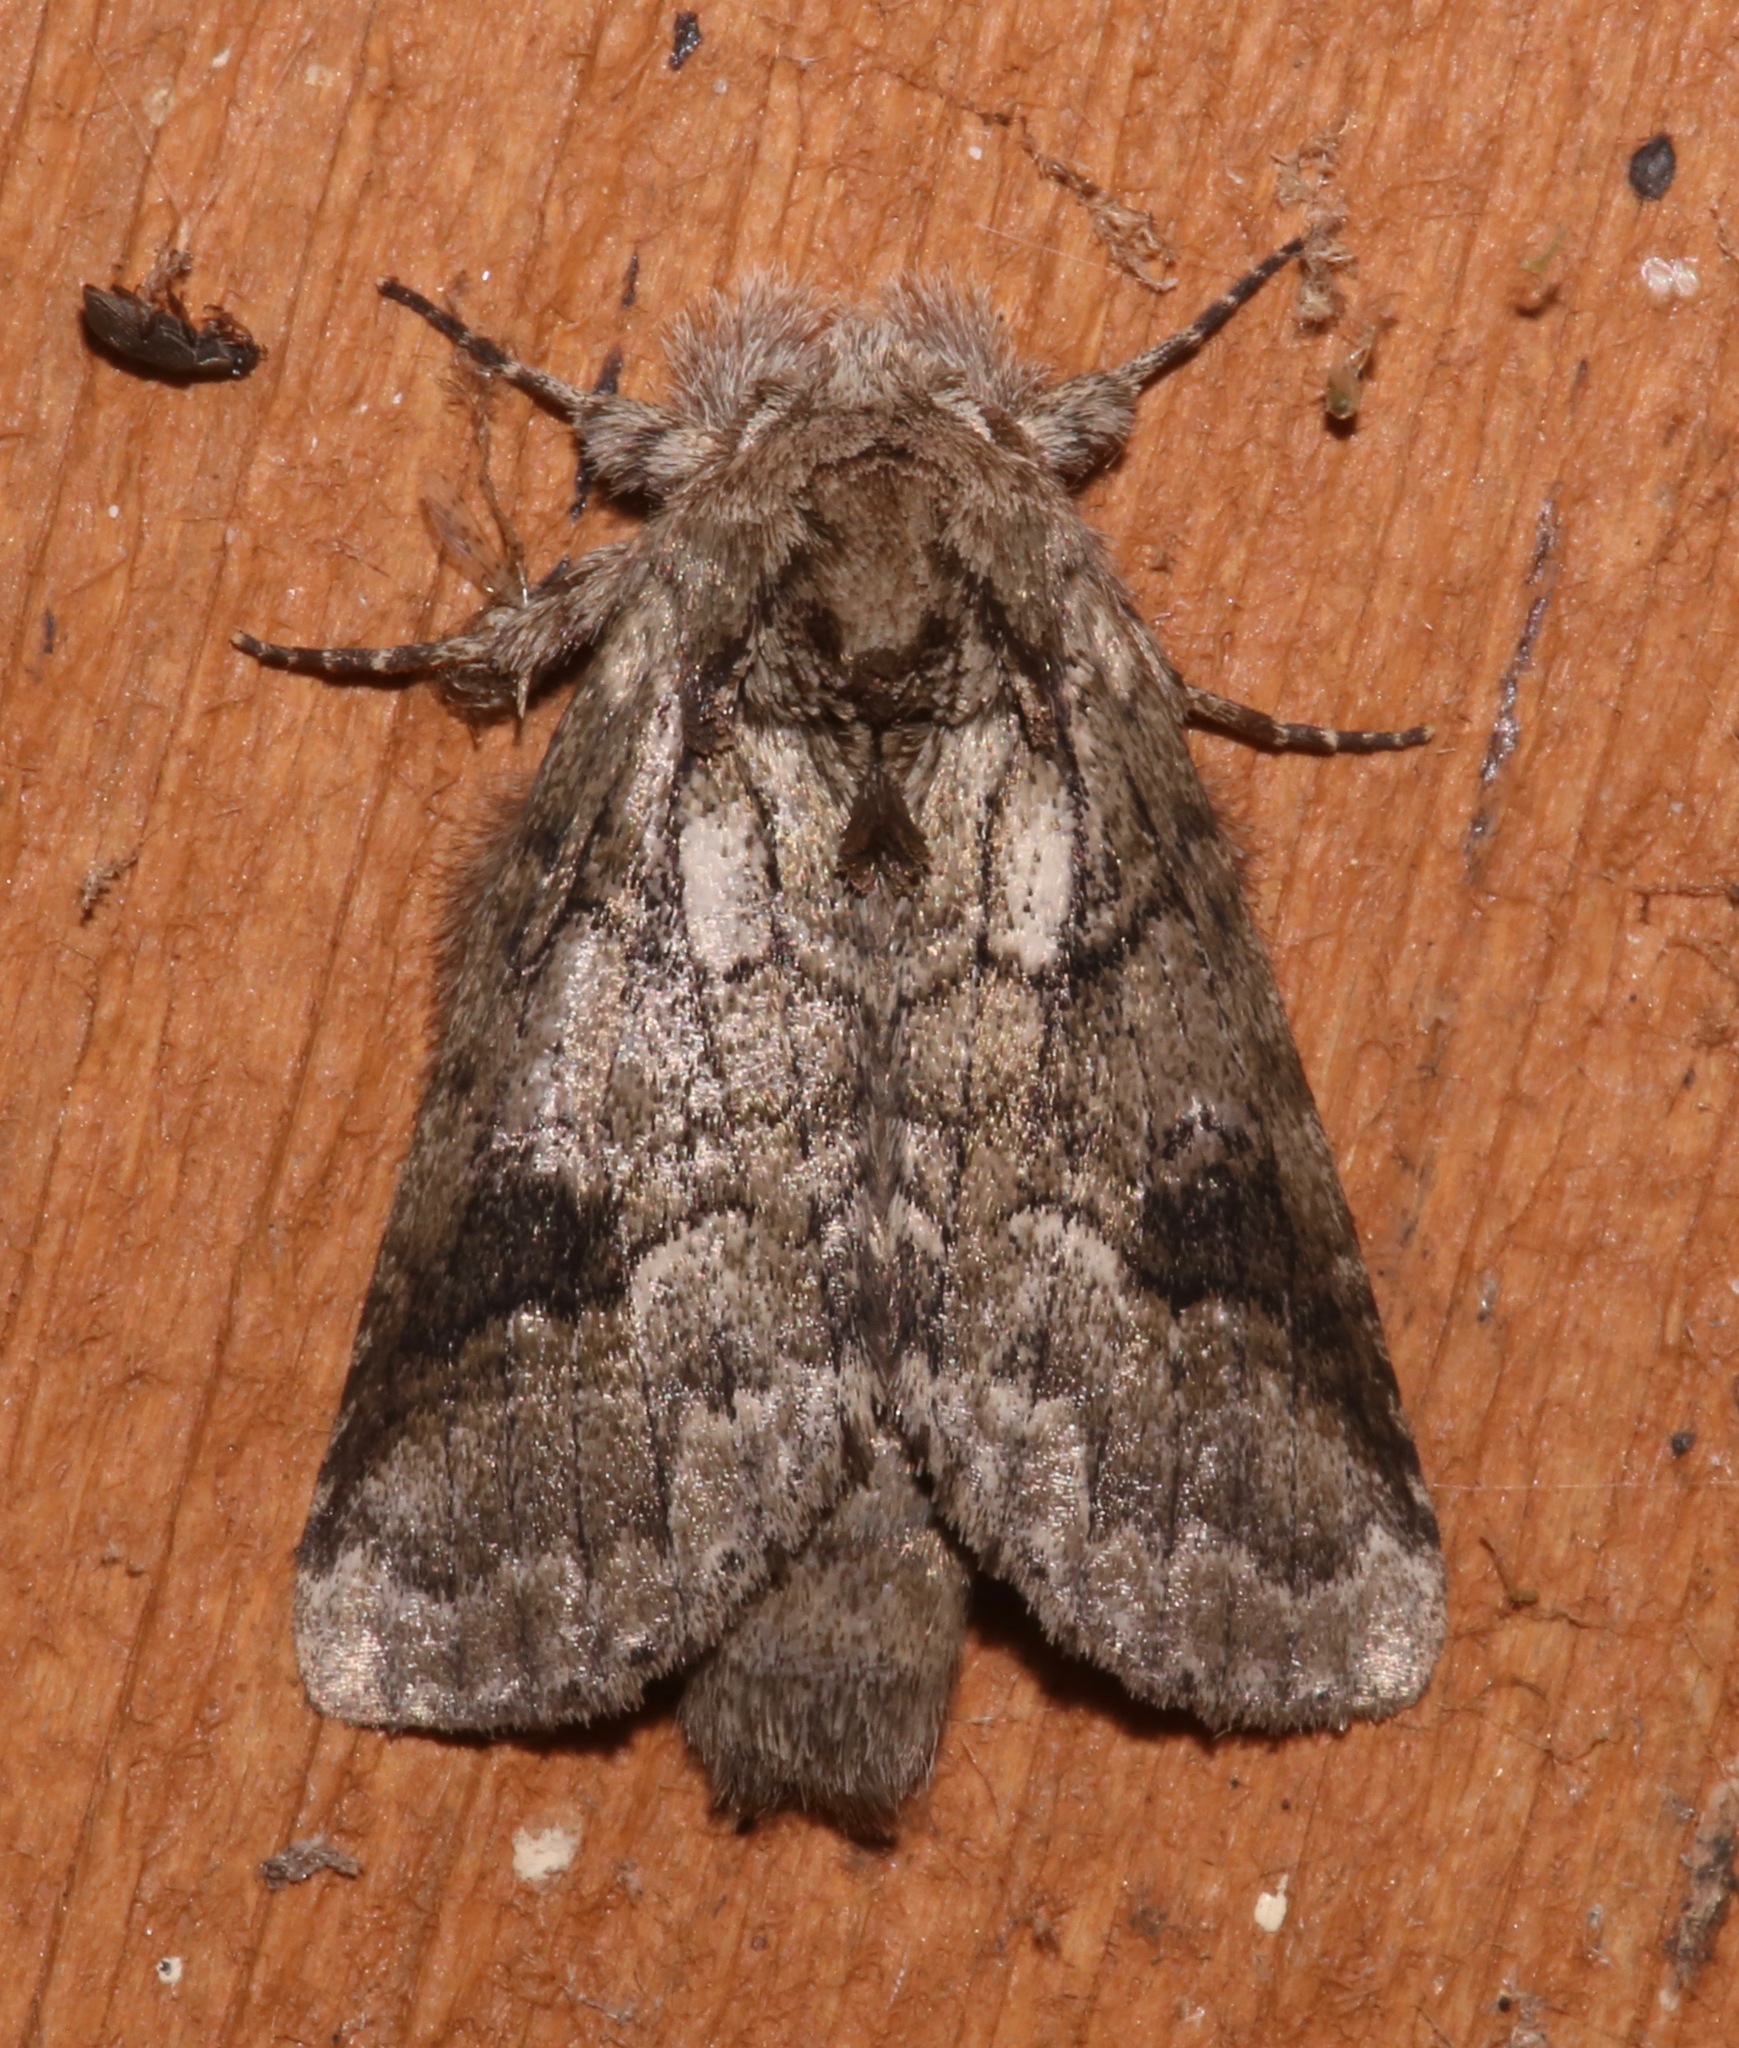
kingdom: Animalia
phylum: Arthropoda
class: Insecta
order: Lepidoptera
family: Notodontidae
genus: Lochmaeus
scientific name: Lochmaeus bilineata
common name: Double-lined prominent
